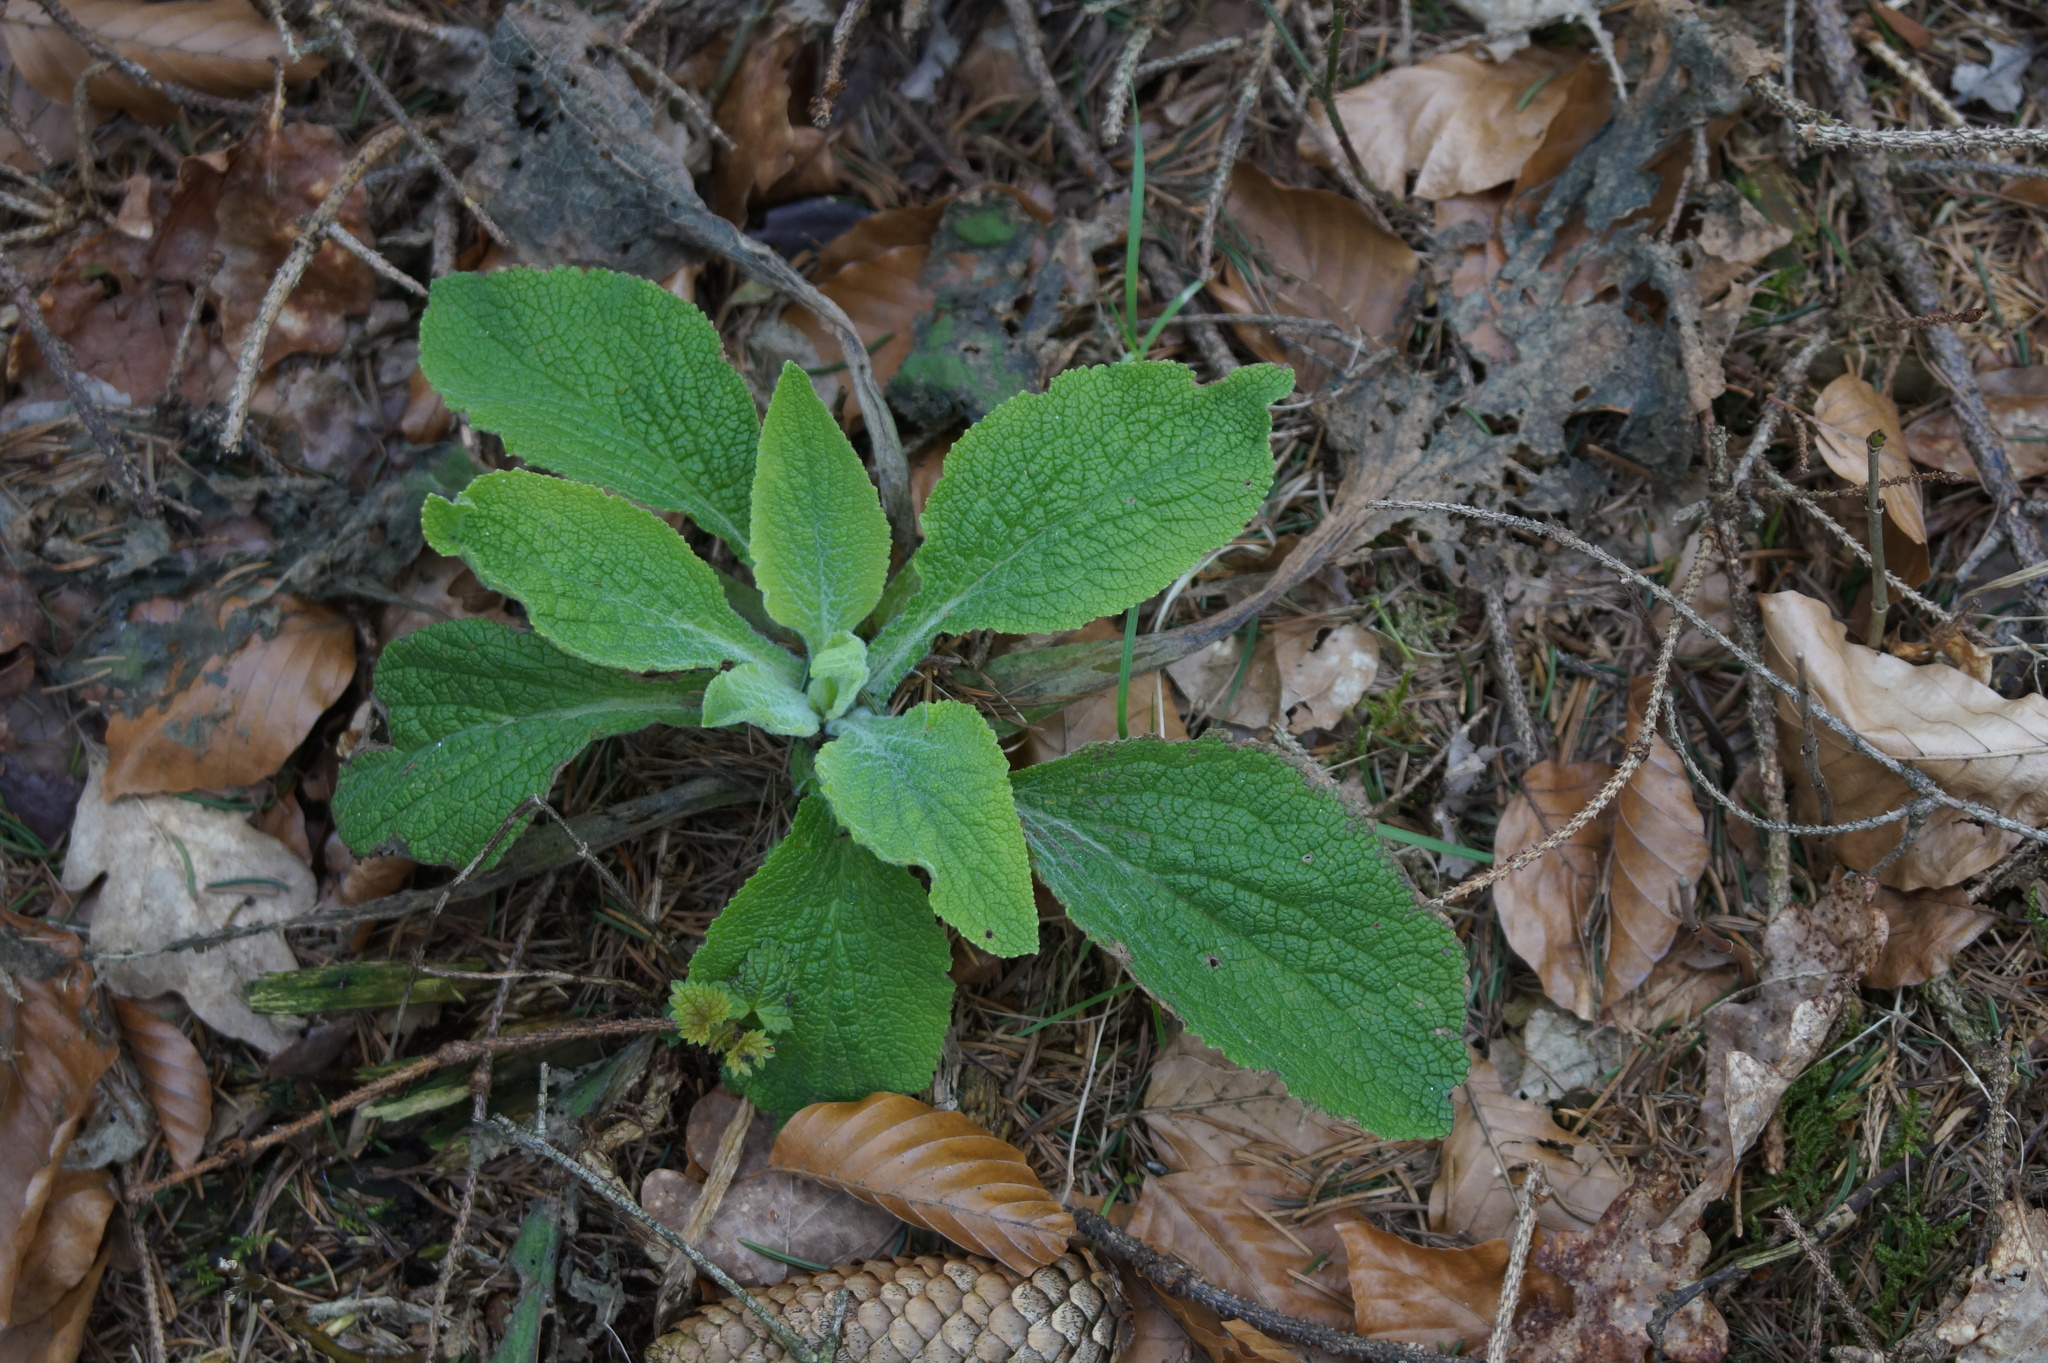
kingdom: Plantae
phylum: Tracheophyta
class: Magnoliopsida
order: Lamiales
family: Plantaginaceae
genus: Digitalis
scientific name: Digitalis purpurea
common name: Foxglove
